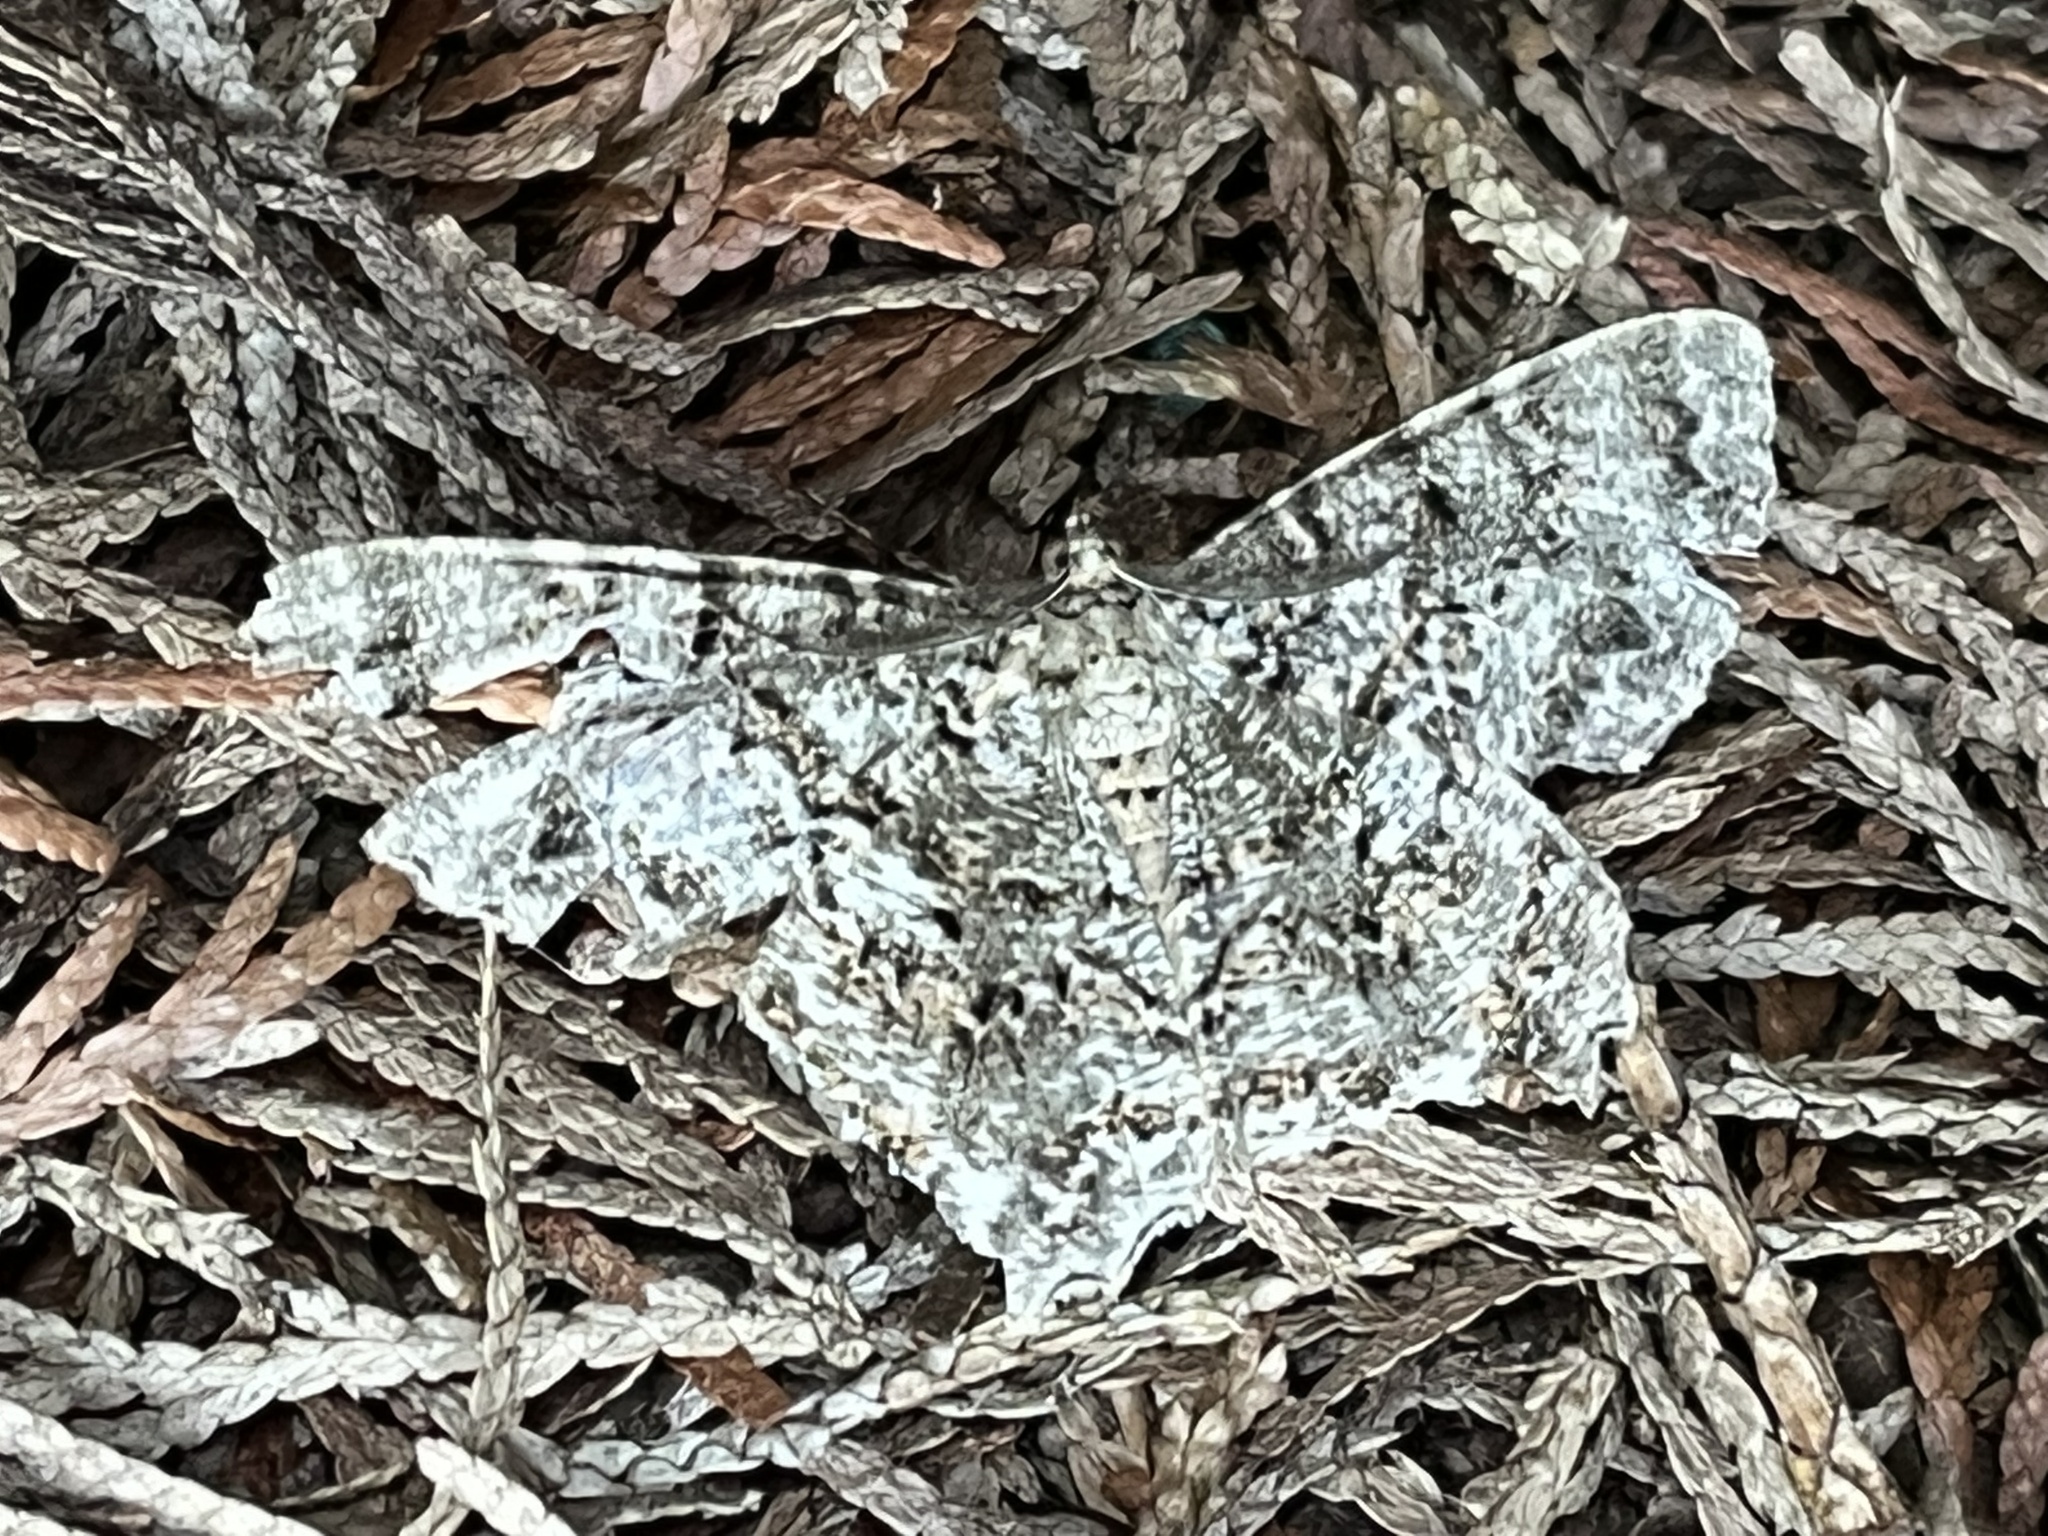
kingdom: Animalia
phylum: Arthropoda
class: Insecta
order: Lepidoptera
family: Geometridae
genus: Epimecis
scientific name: Epimecis hortaria
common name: Tulip-tree beauty
